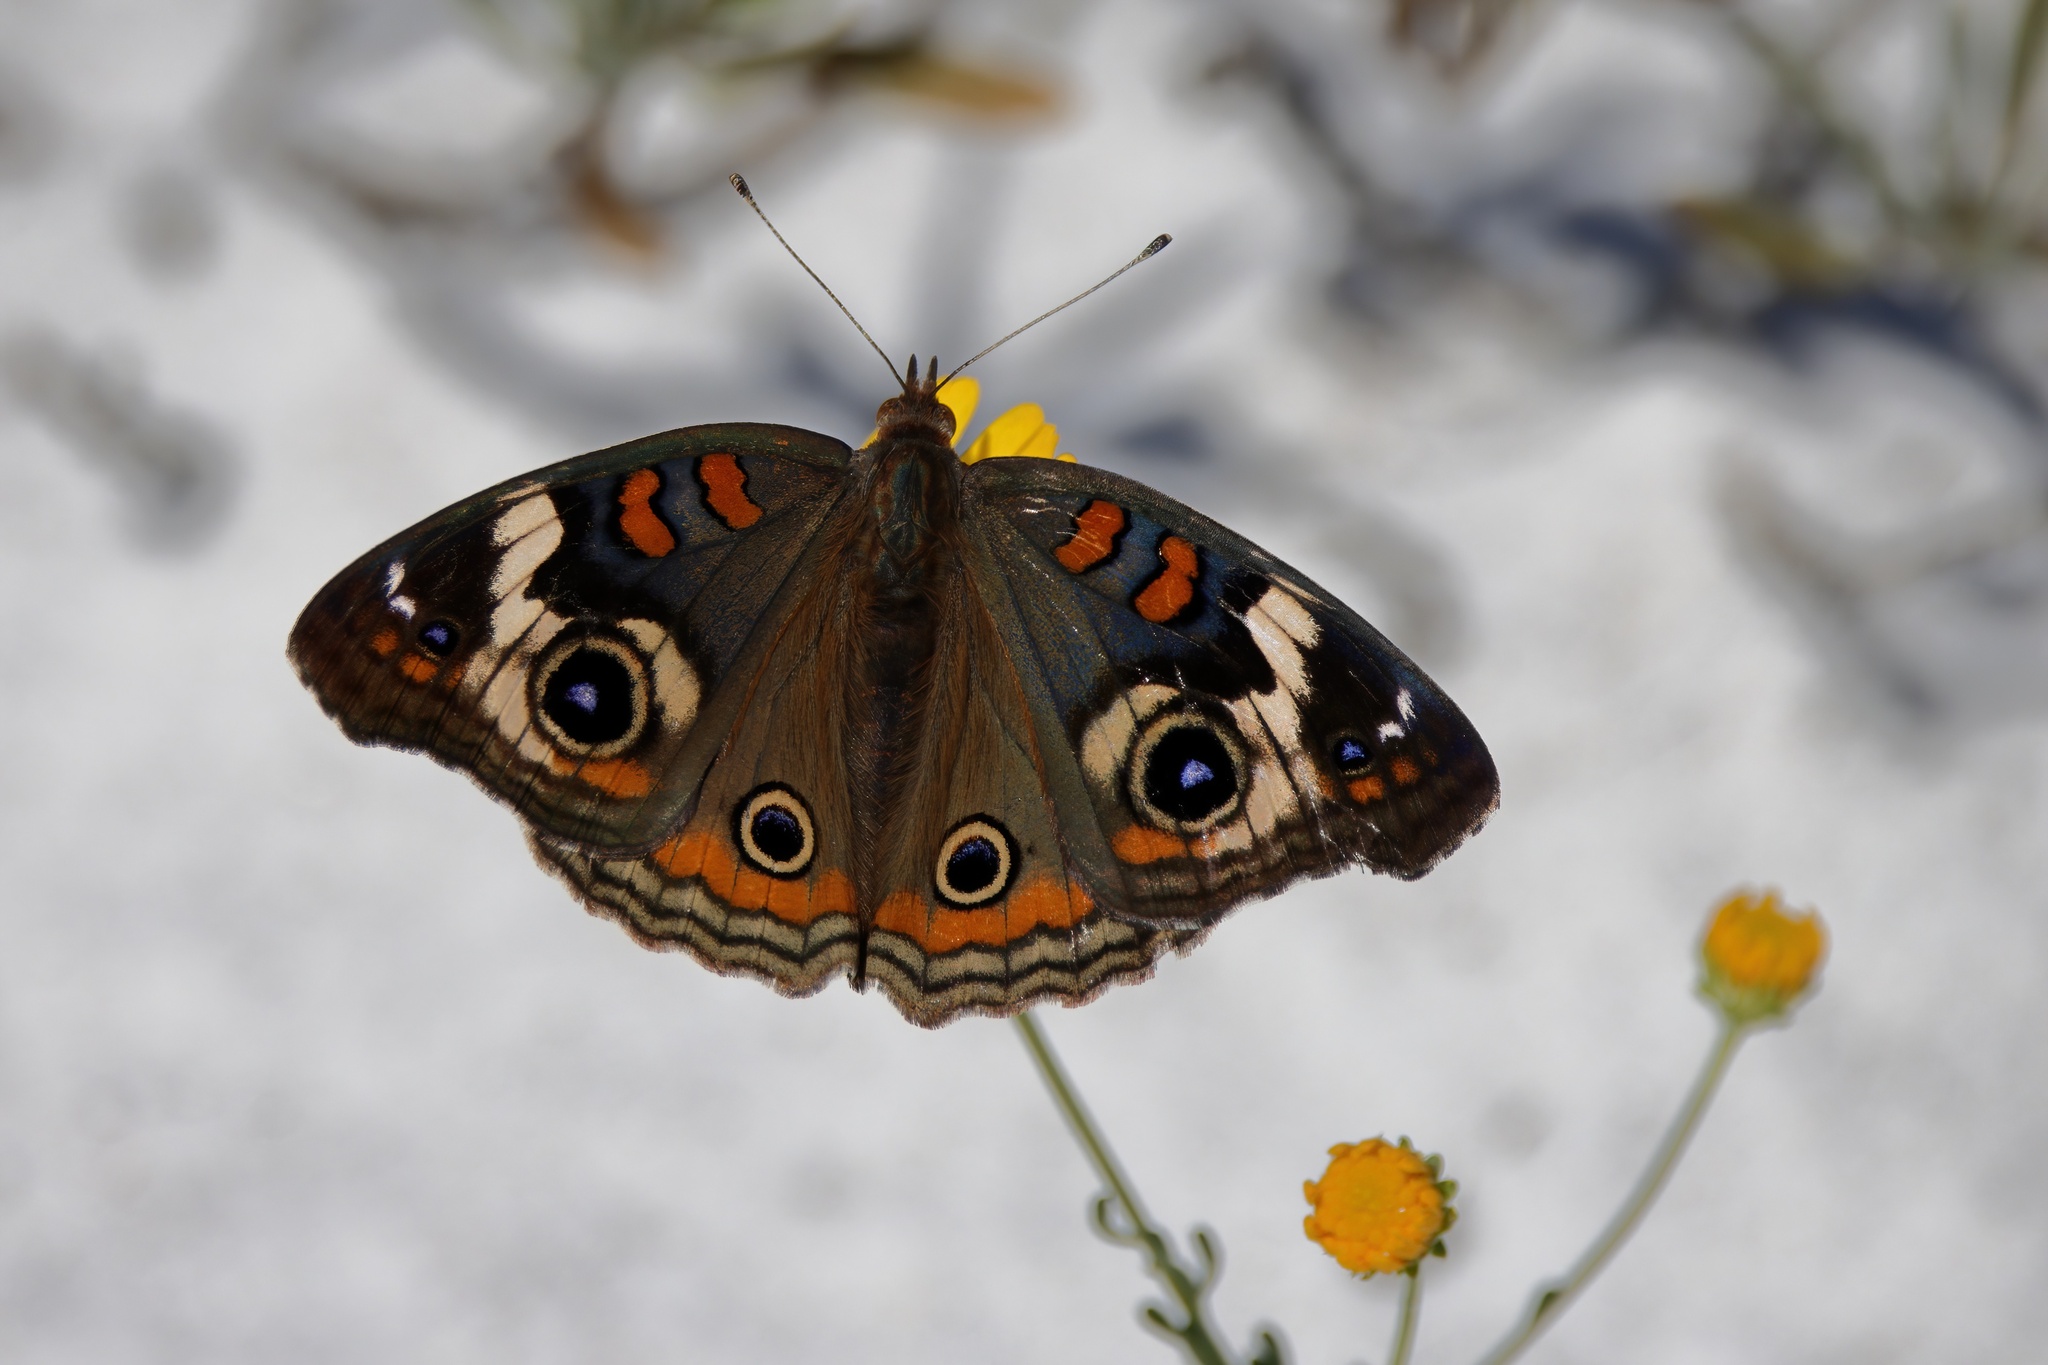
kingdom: Animalia
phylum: Arthropoda
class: Insecta
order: Lepidoptera
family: Nymphalidae
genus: Junonia
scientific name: Junonia coenia
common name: Common buckeye
